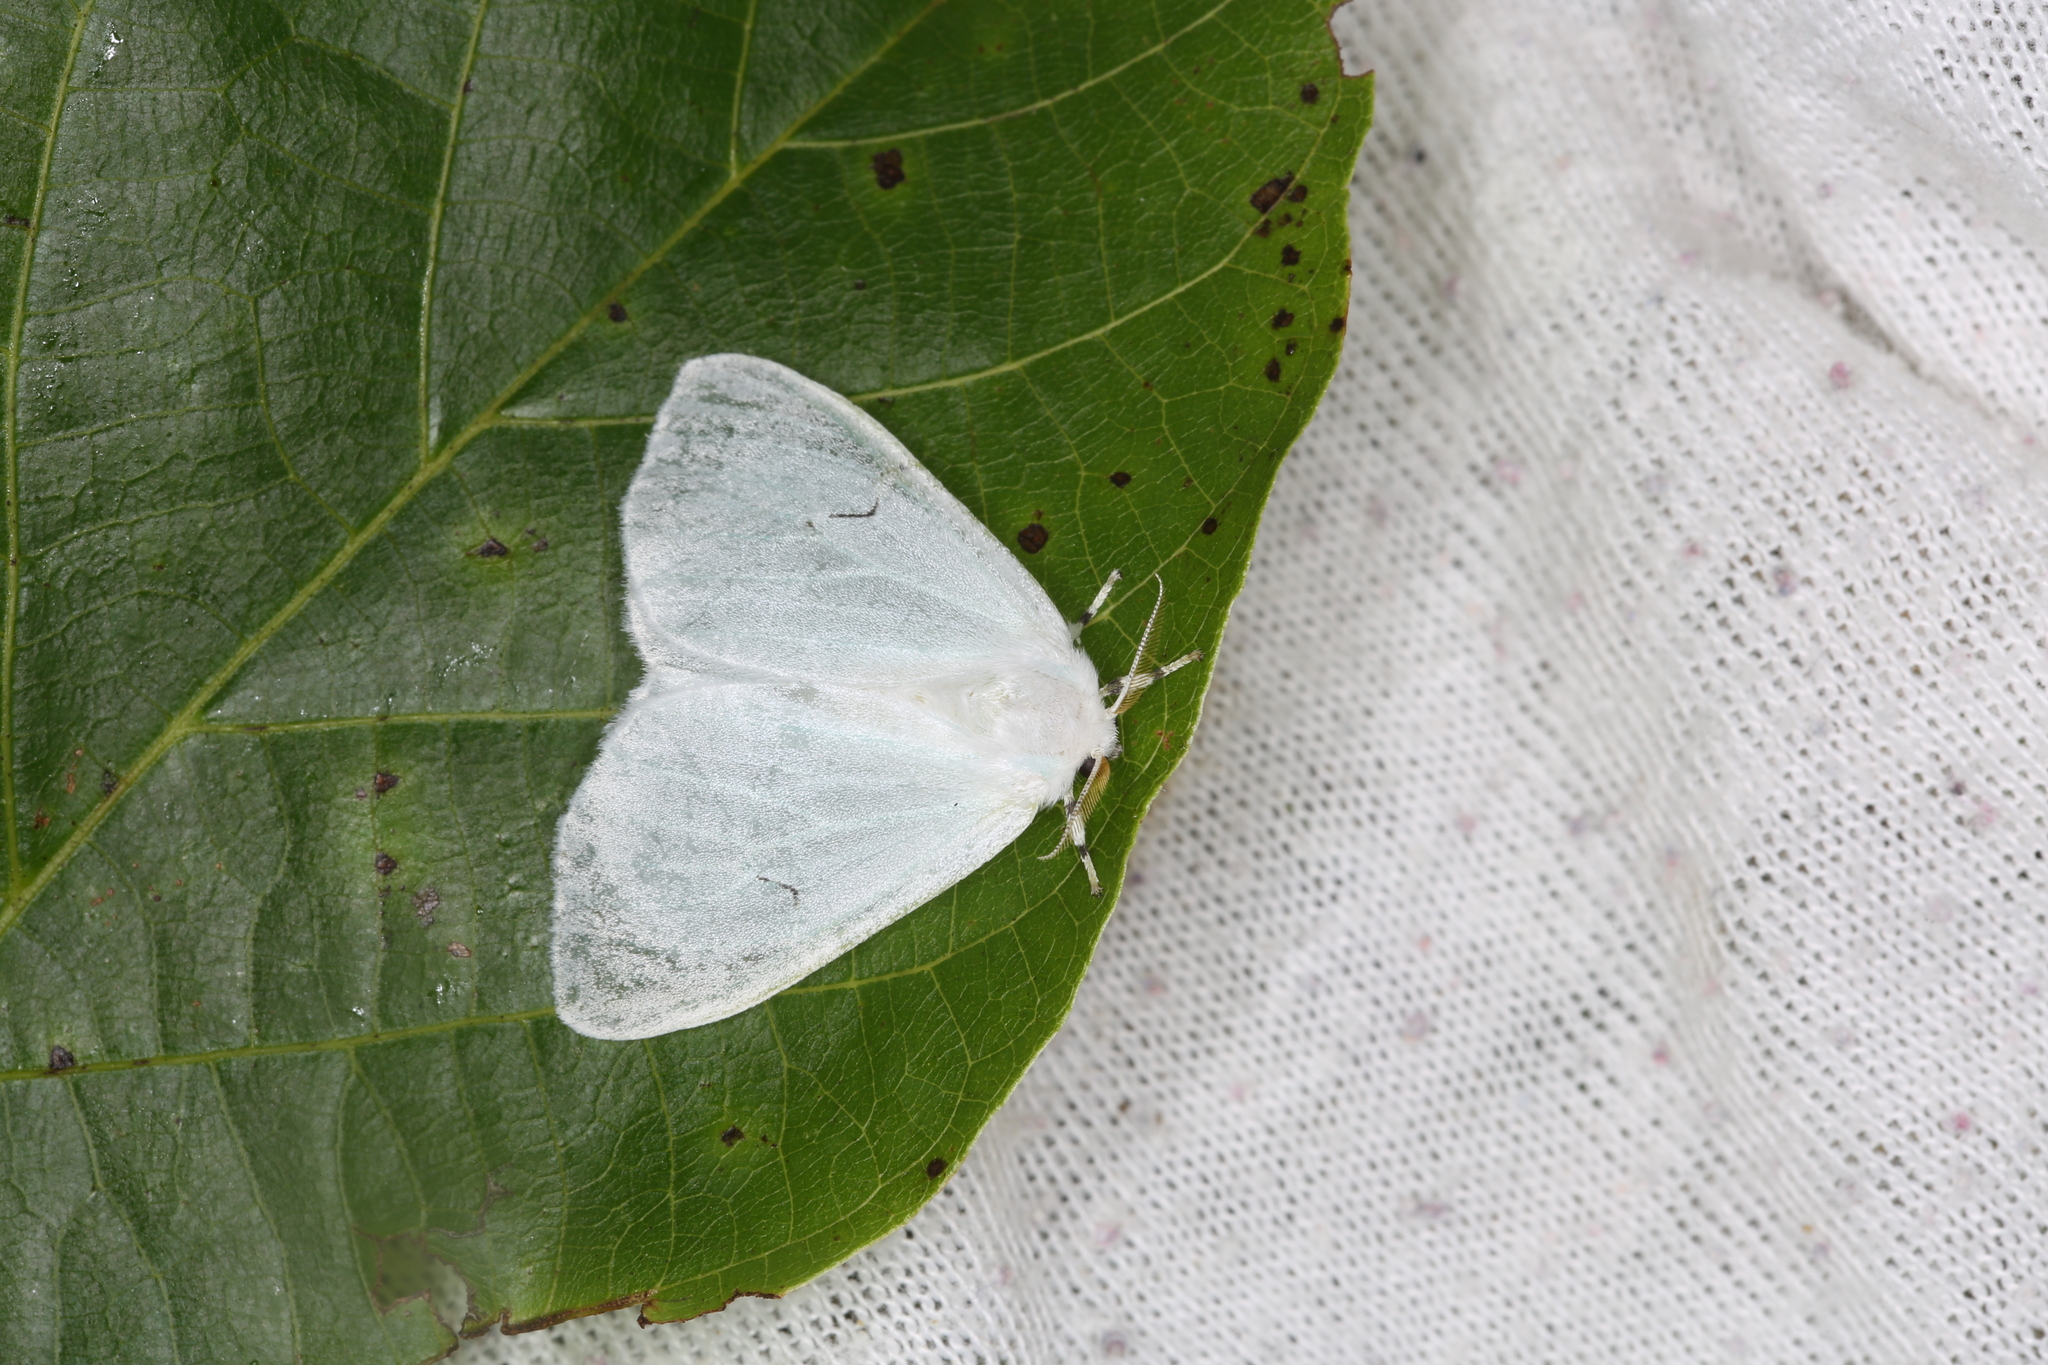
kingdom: Animalia
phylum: Arthropoda
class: Insecta
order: Lepidoptera
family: Erebidae
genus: Arctornis
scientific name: Arctornis l-nigrum
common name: Black v moth
